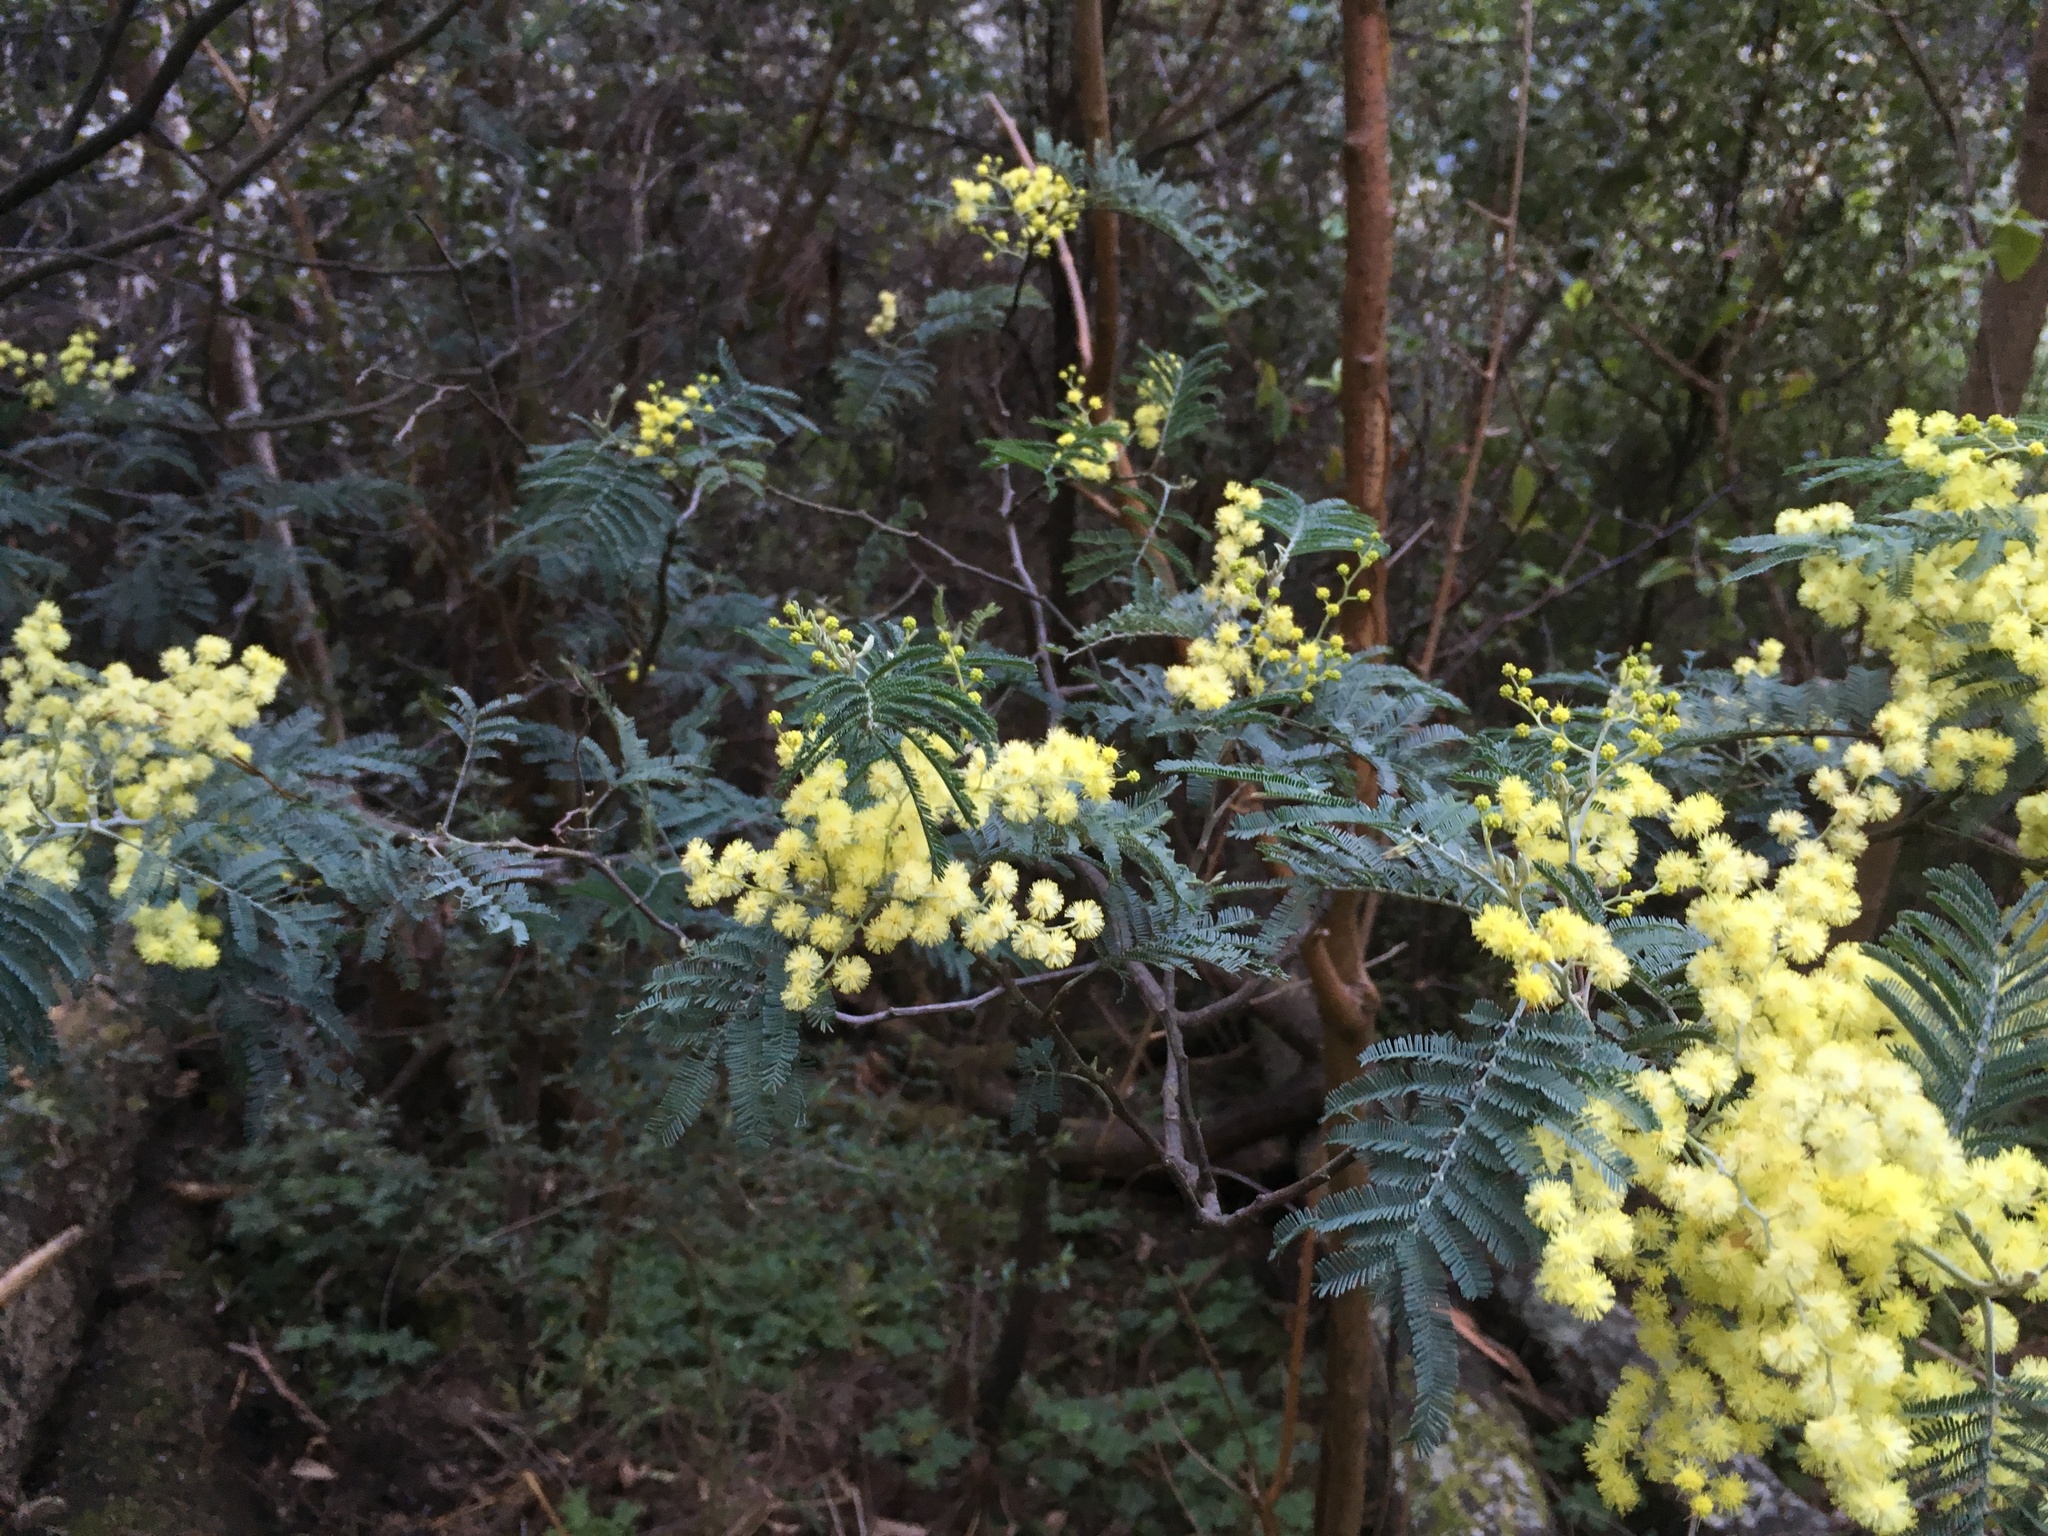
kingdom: Plantae
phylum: Tracheophyta
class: Magnoliopsida
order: Fabales
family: Fabaceae
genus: Acacia
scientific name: Acacia dealbata
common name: Silver wattle
